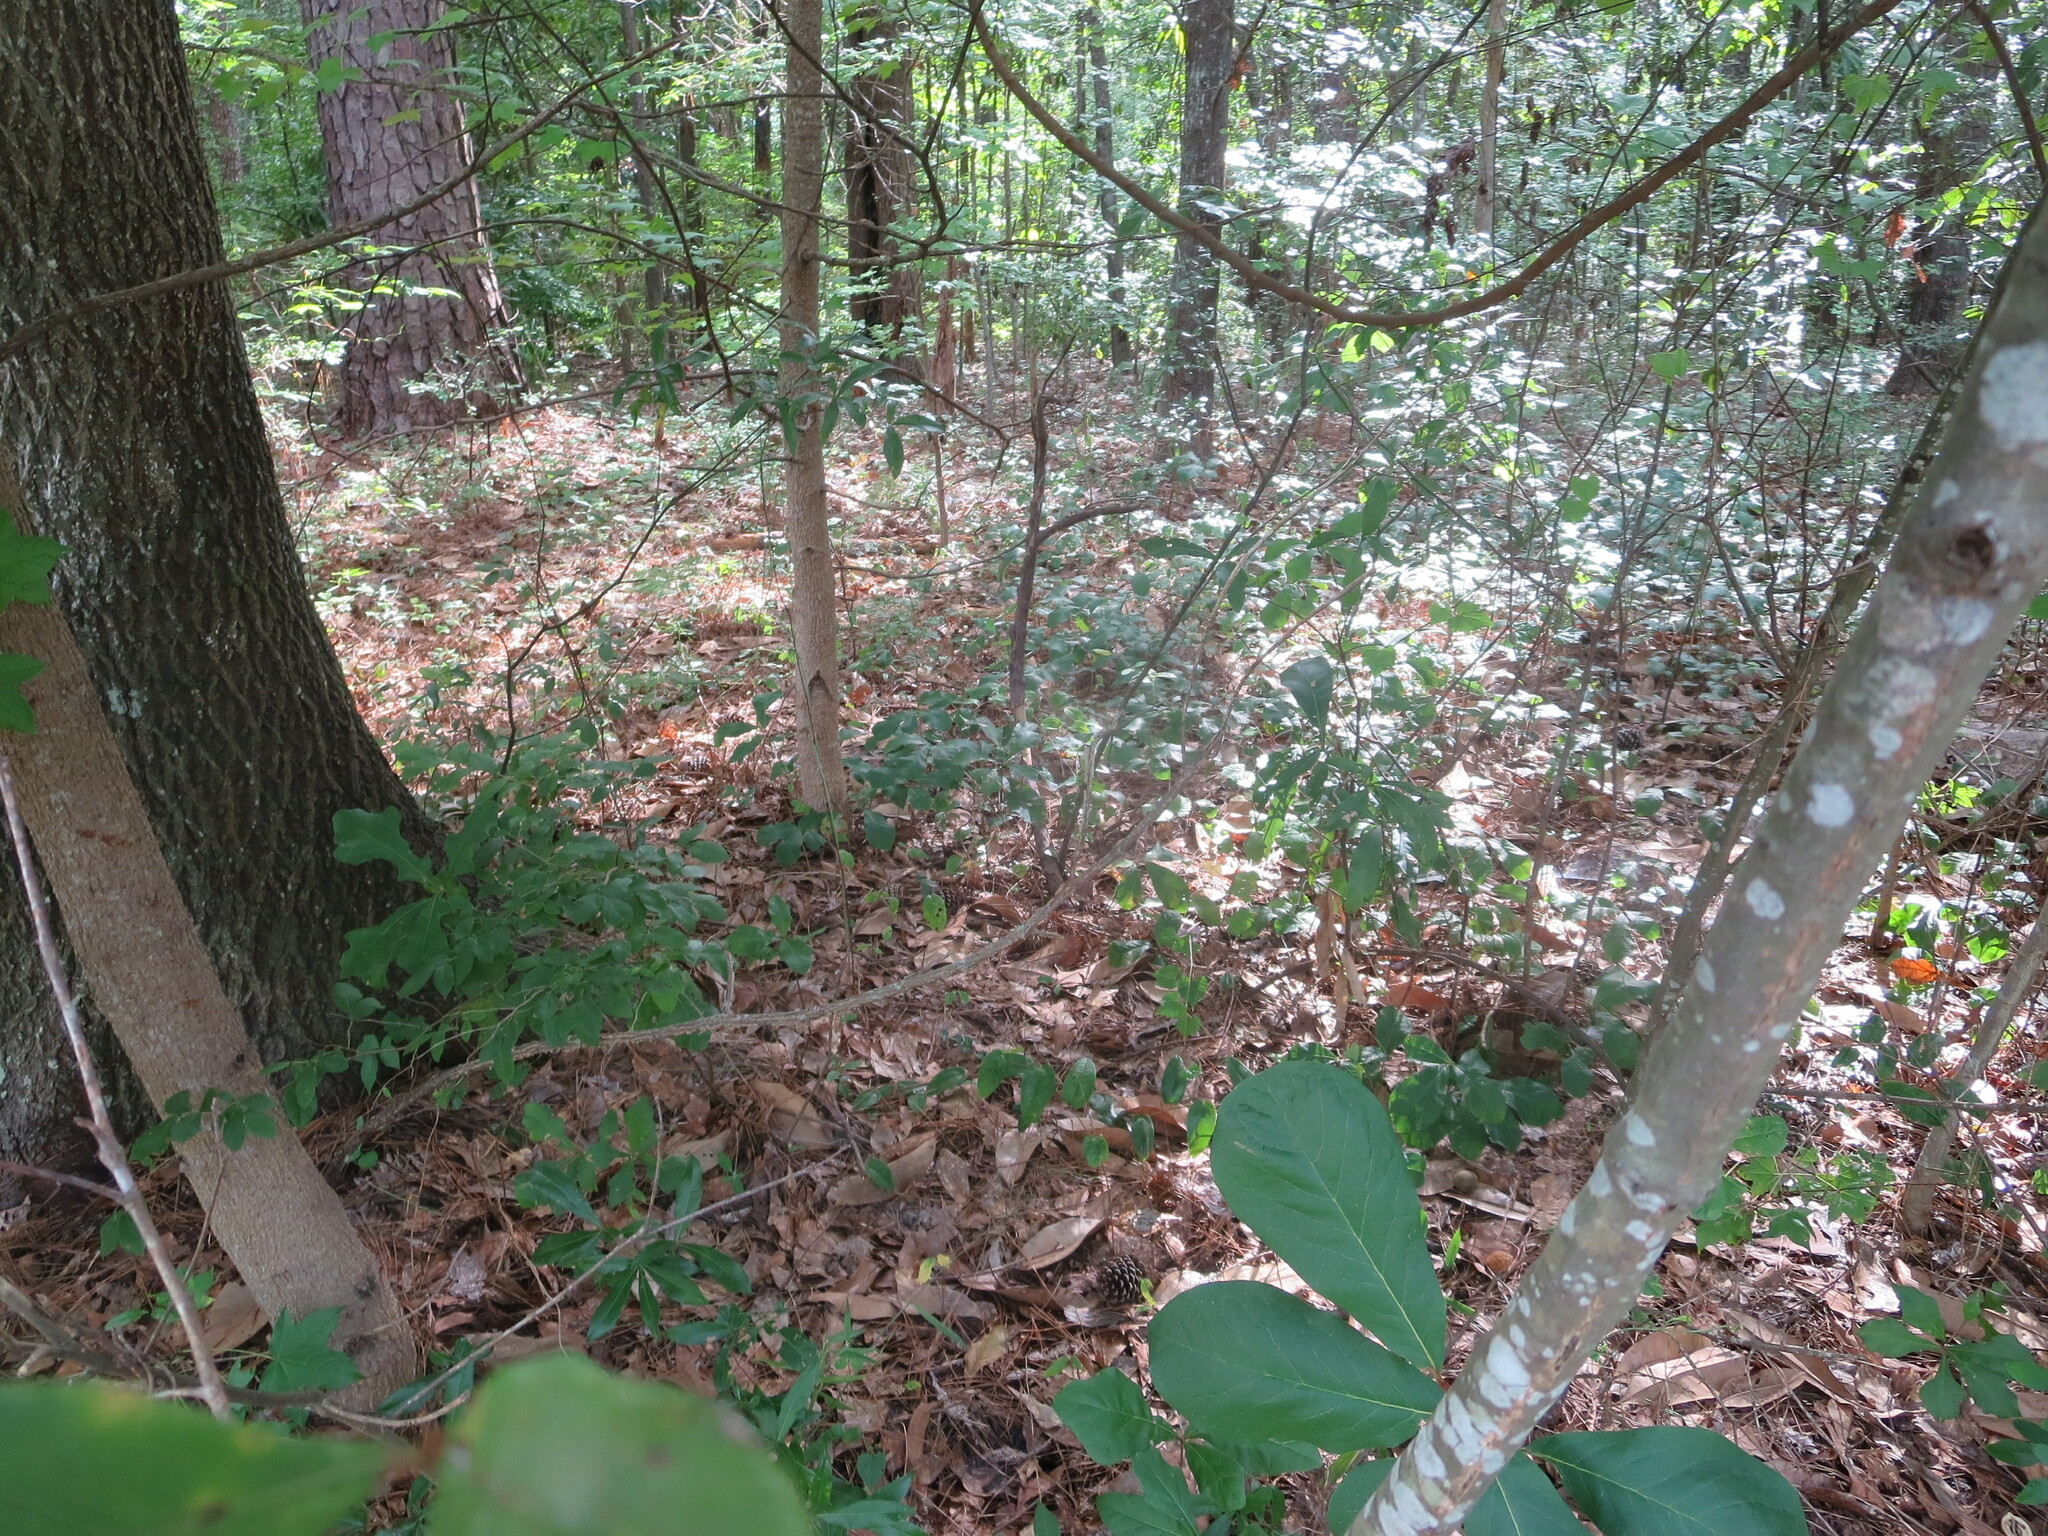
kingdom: Plantae
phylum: Tracheophyta
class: Magnoliopsida
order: Magnoliales
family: Annonaceae
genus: Asimina
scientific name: Asimina parviflora
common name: Dwarf pawpaw
